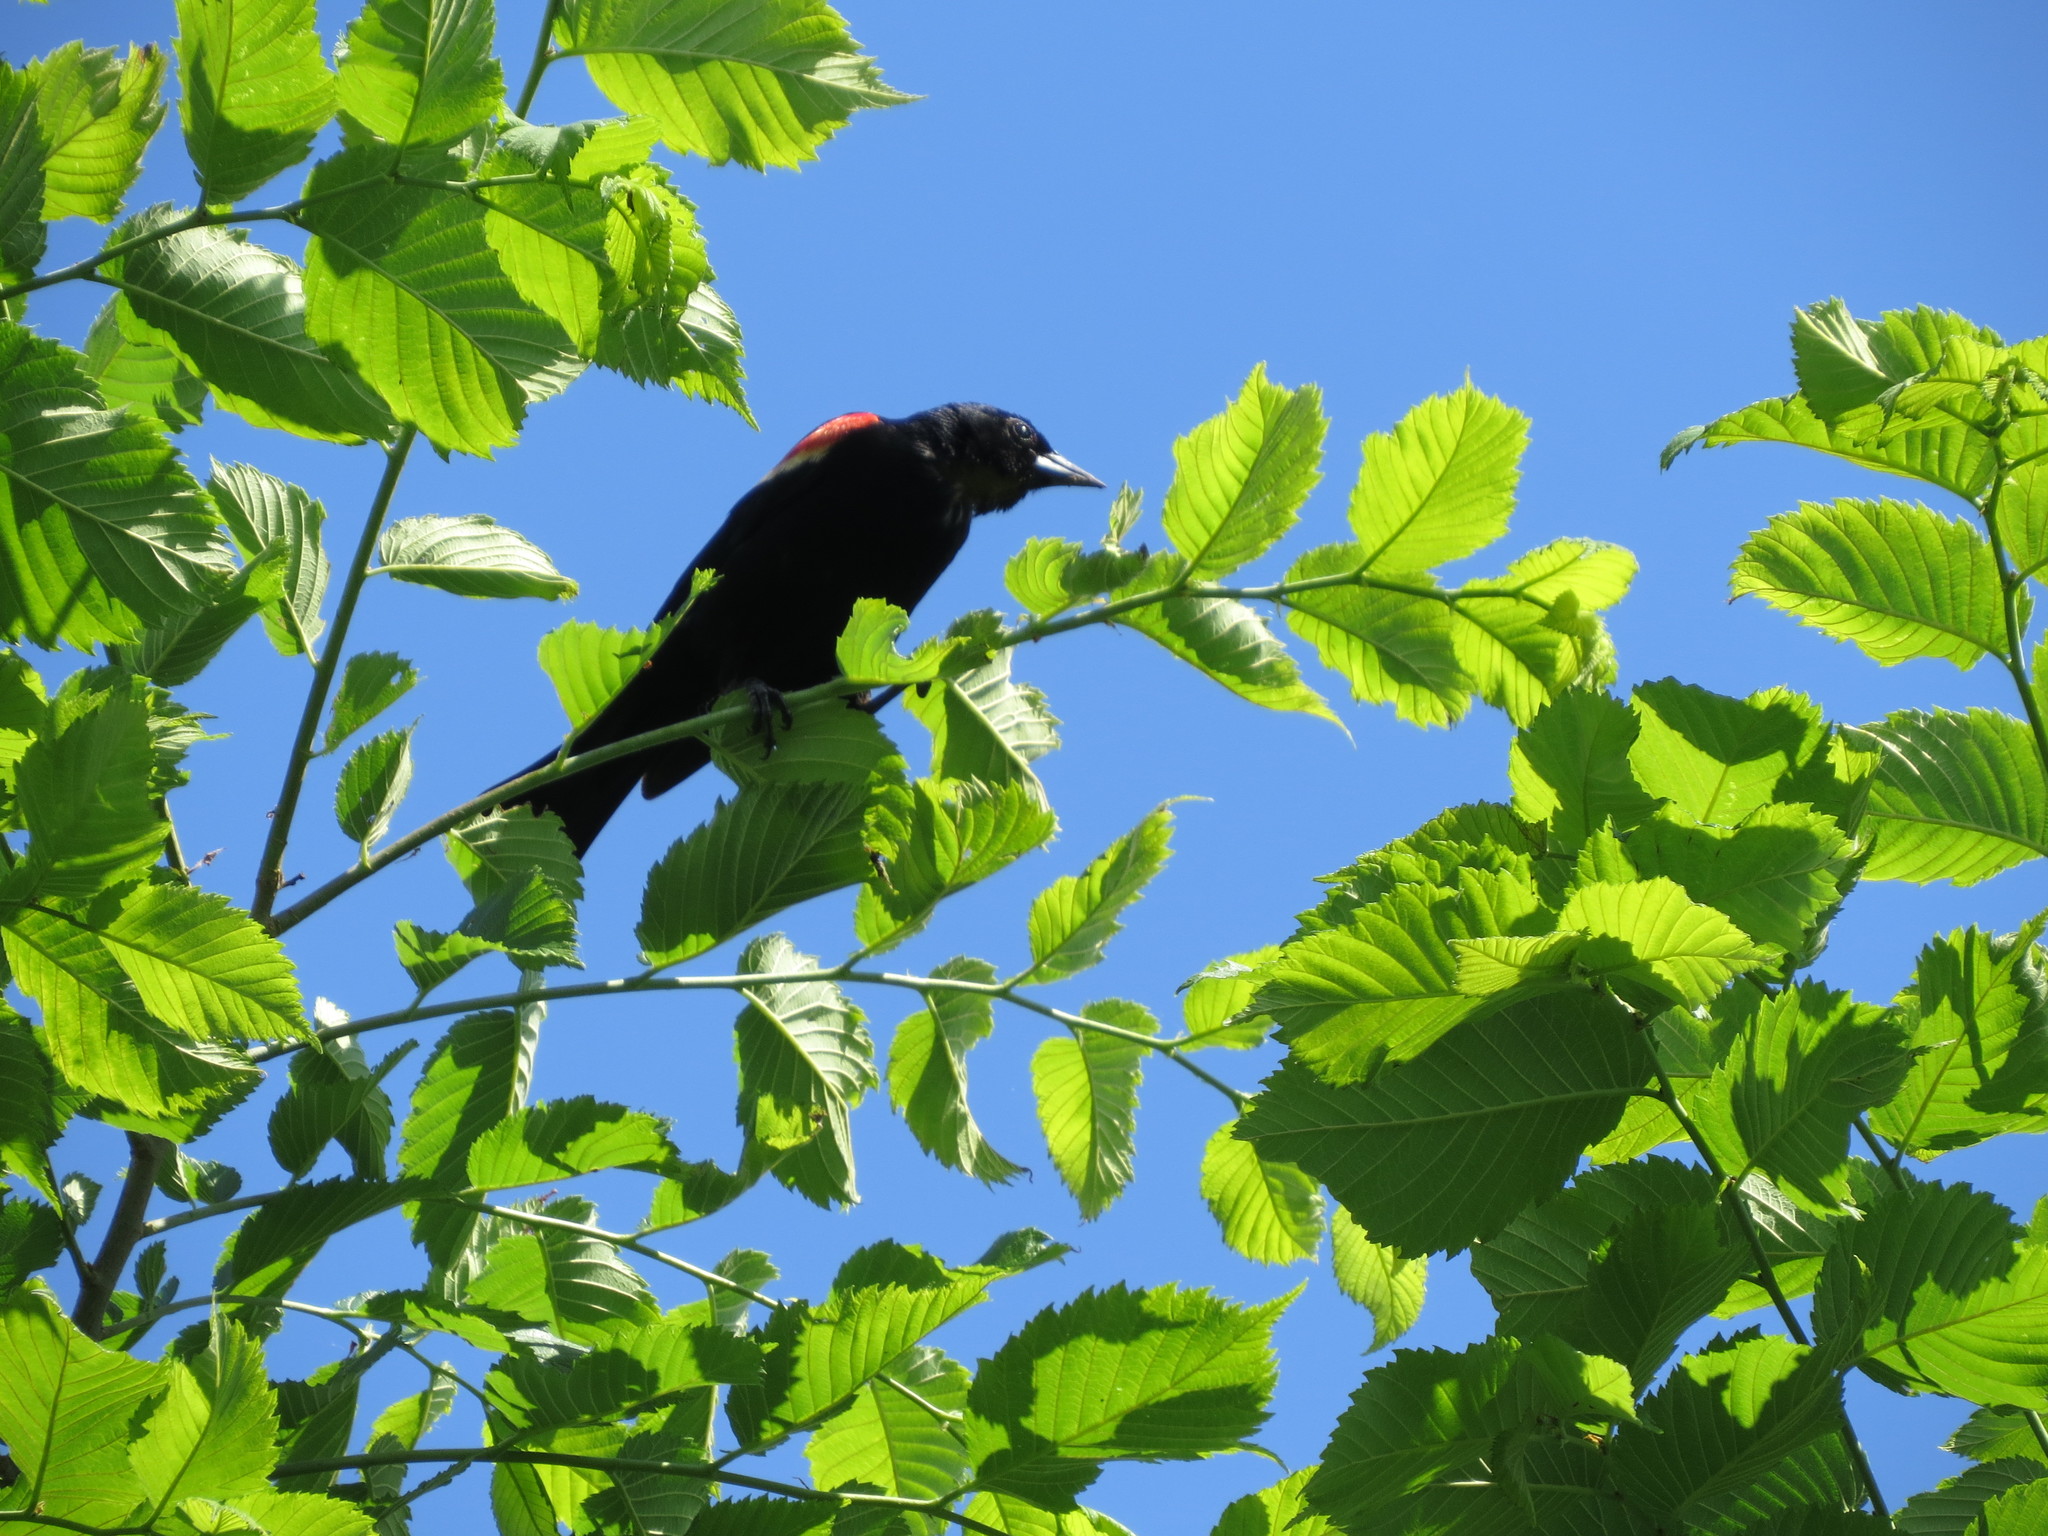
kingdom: Animalia
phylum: Chordata
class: Aves
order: Passeriformes
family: Icteridae
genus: Agelaius
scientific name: Agelaius phoeniceus
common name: Red-winged blackbird
